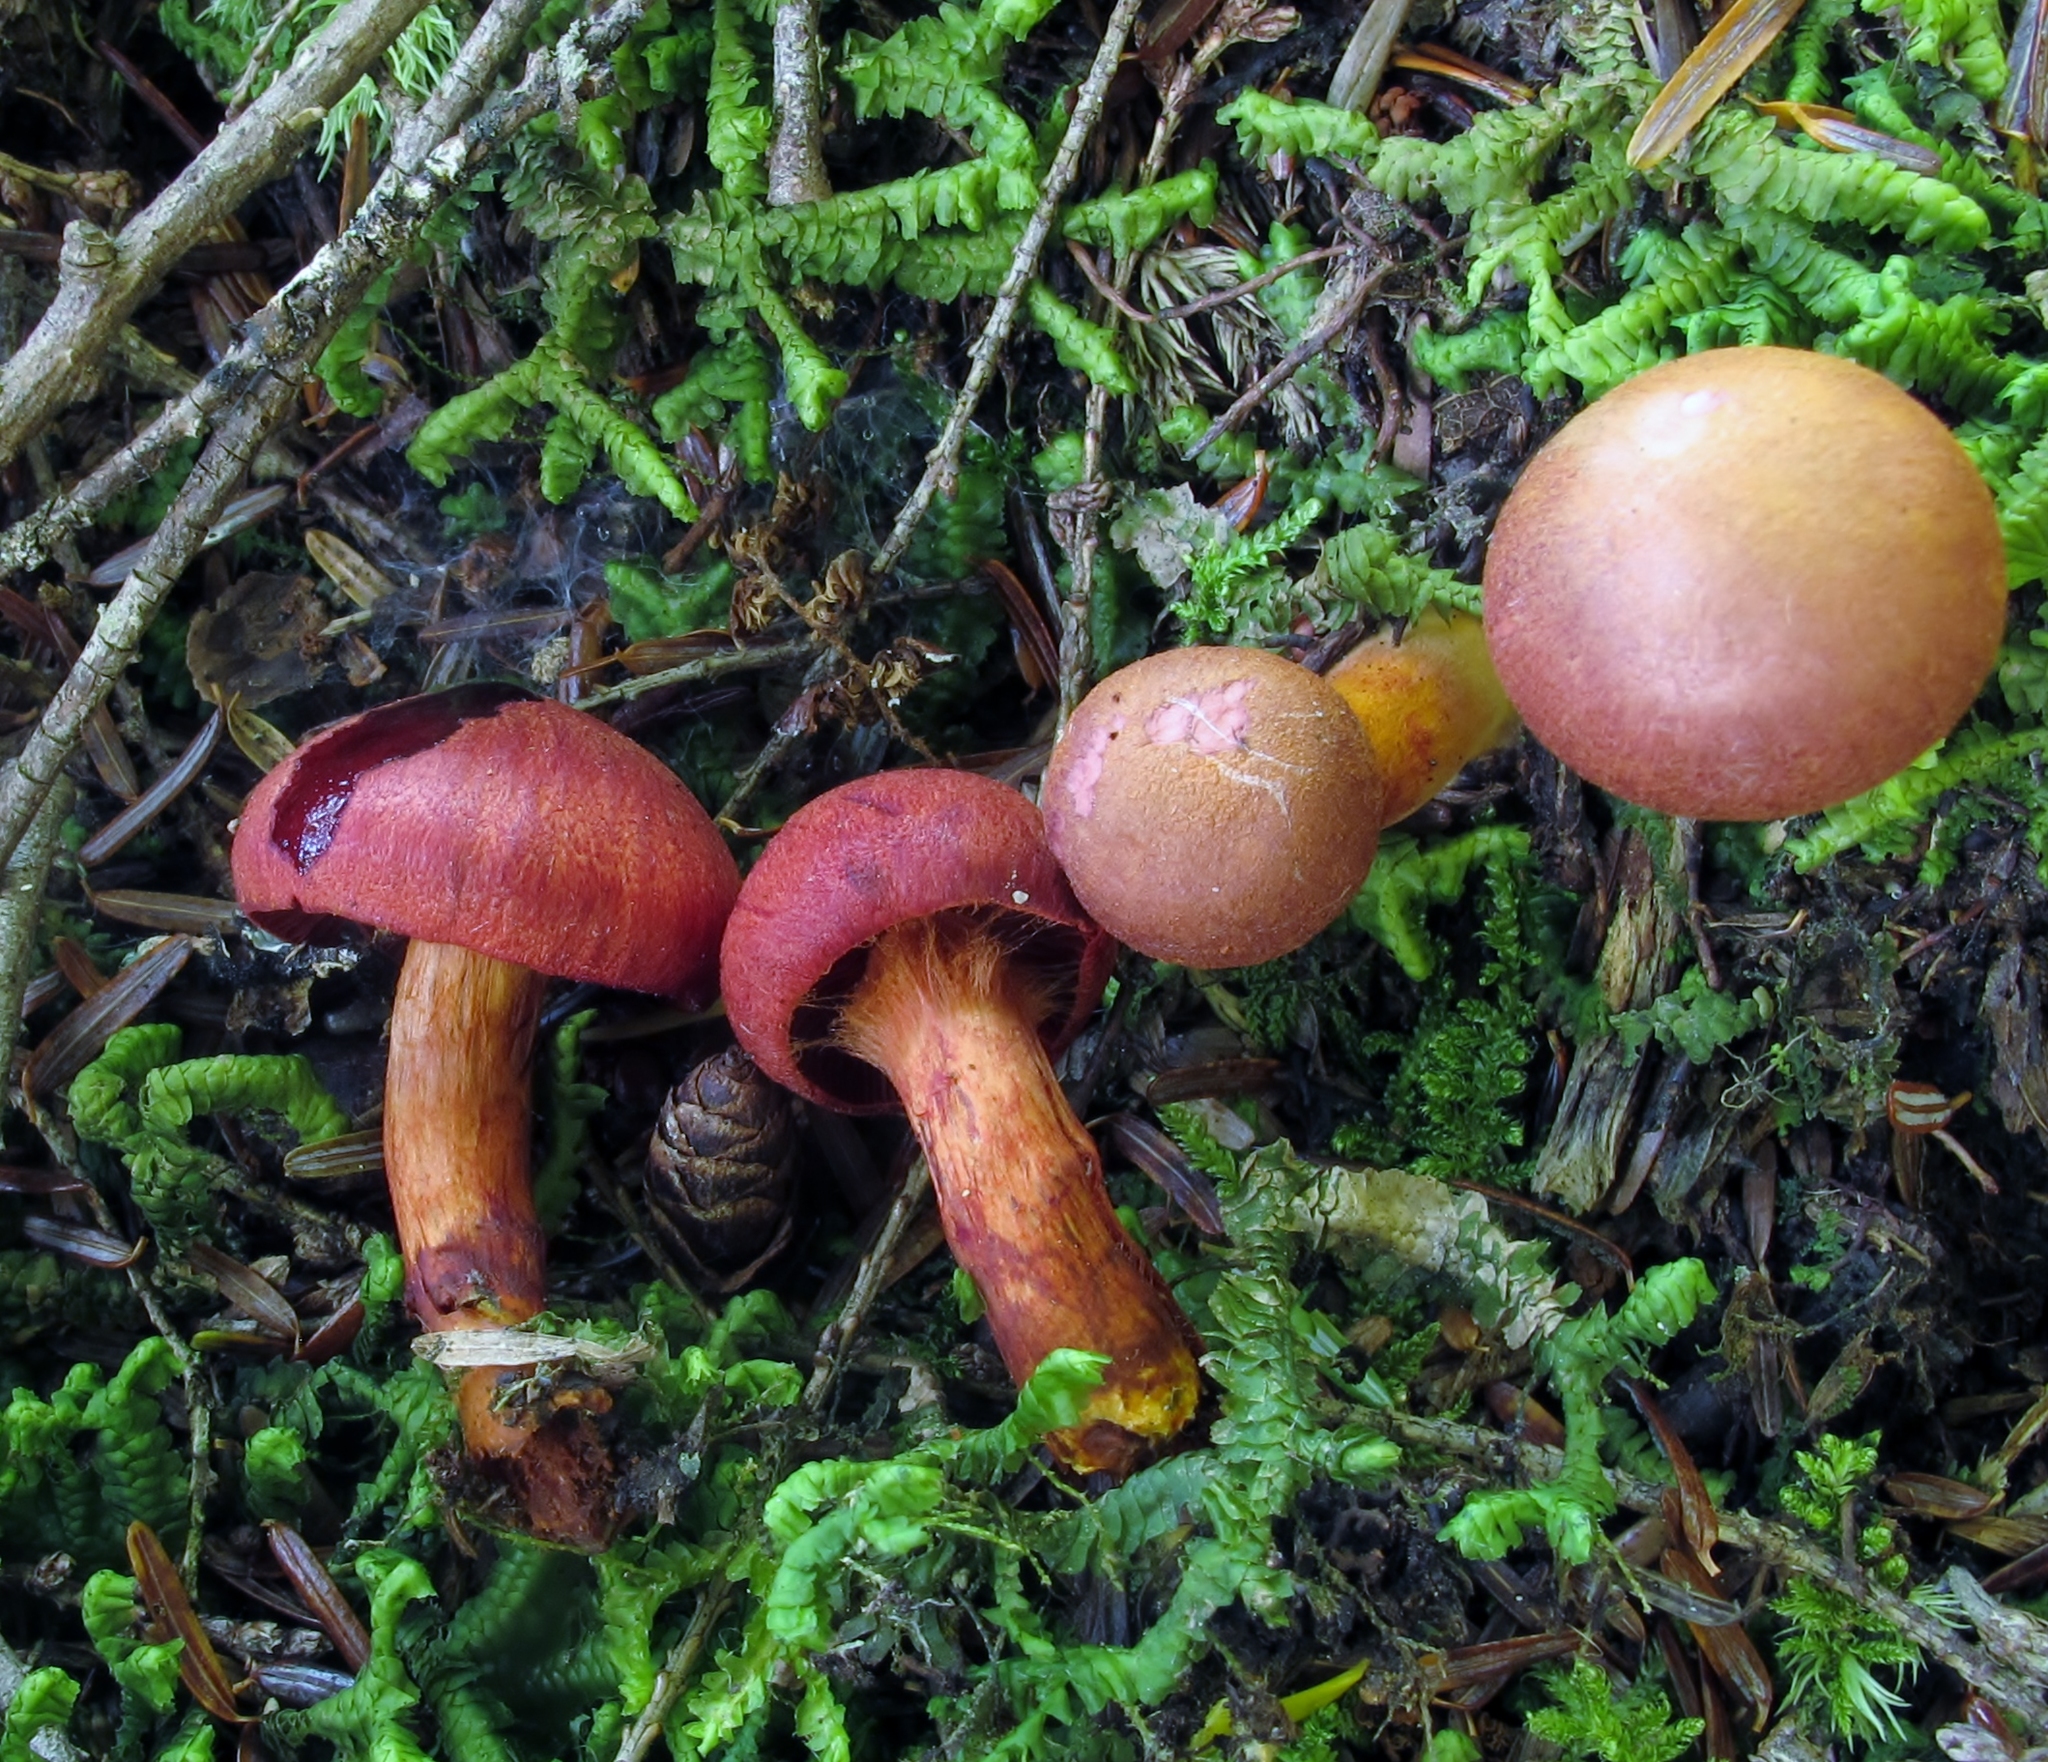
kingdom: Fungi
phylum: Basidiomycota
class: Agaricomycetes
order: Agaricales
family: Cortinariaceae
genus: Cortinarius
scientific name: Cortinarius harrisonii
